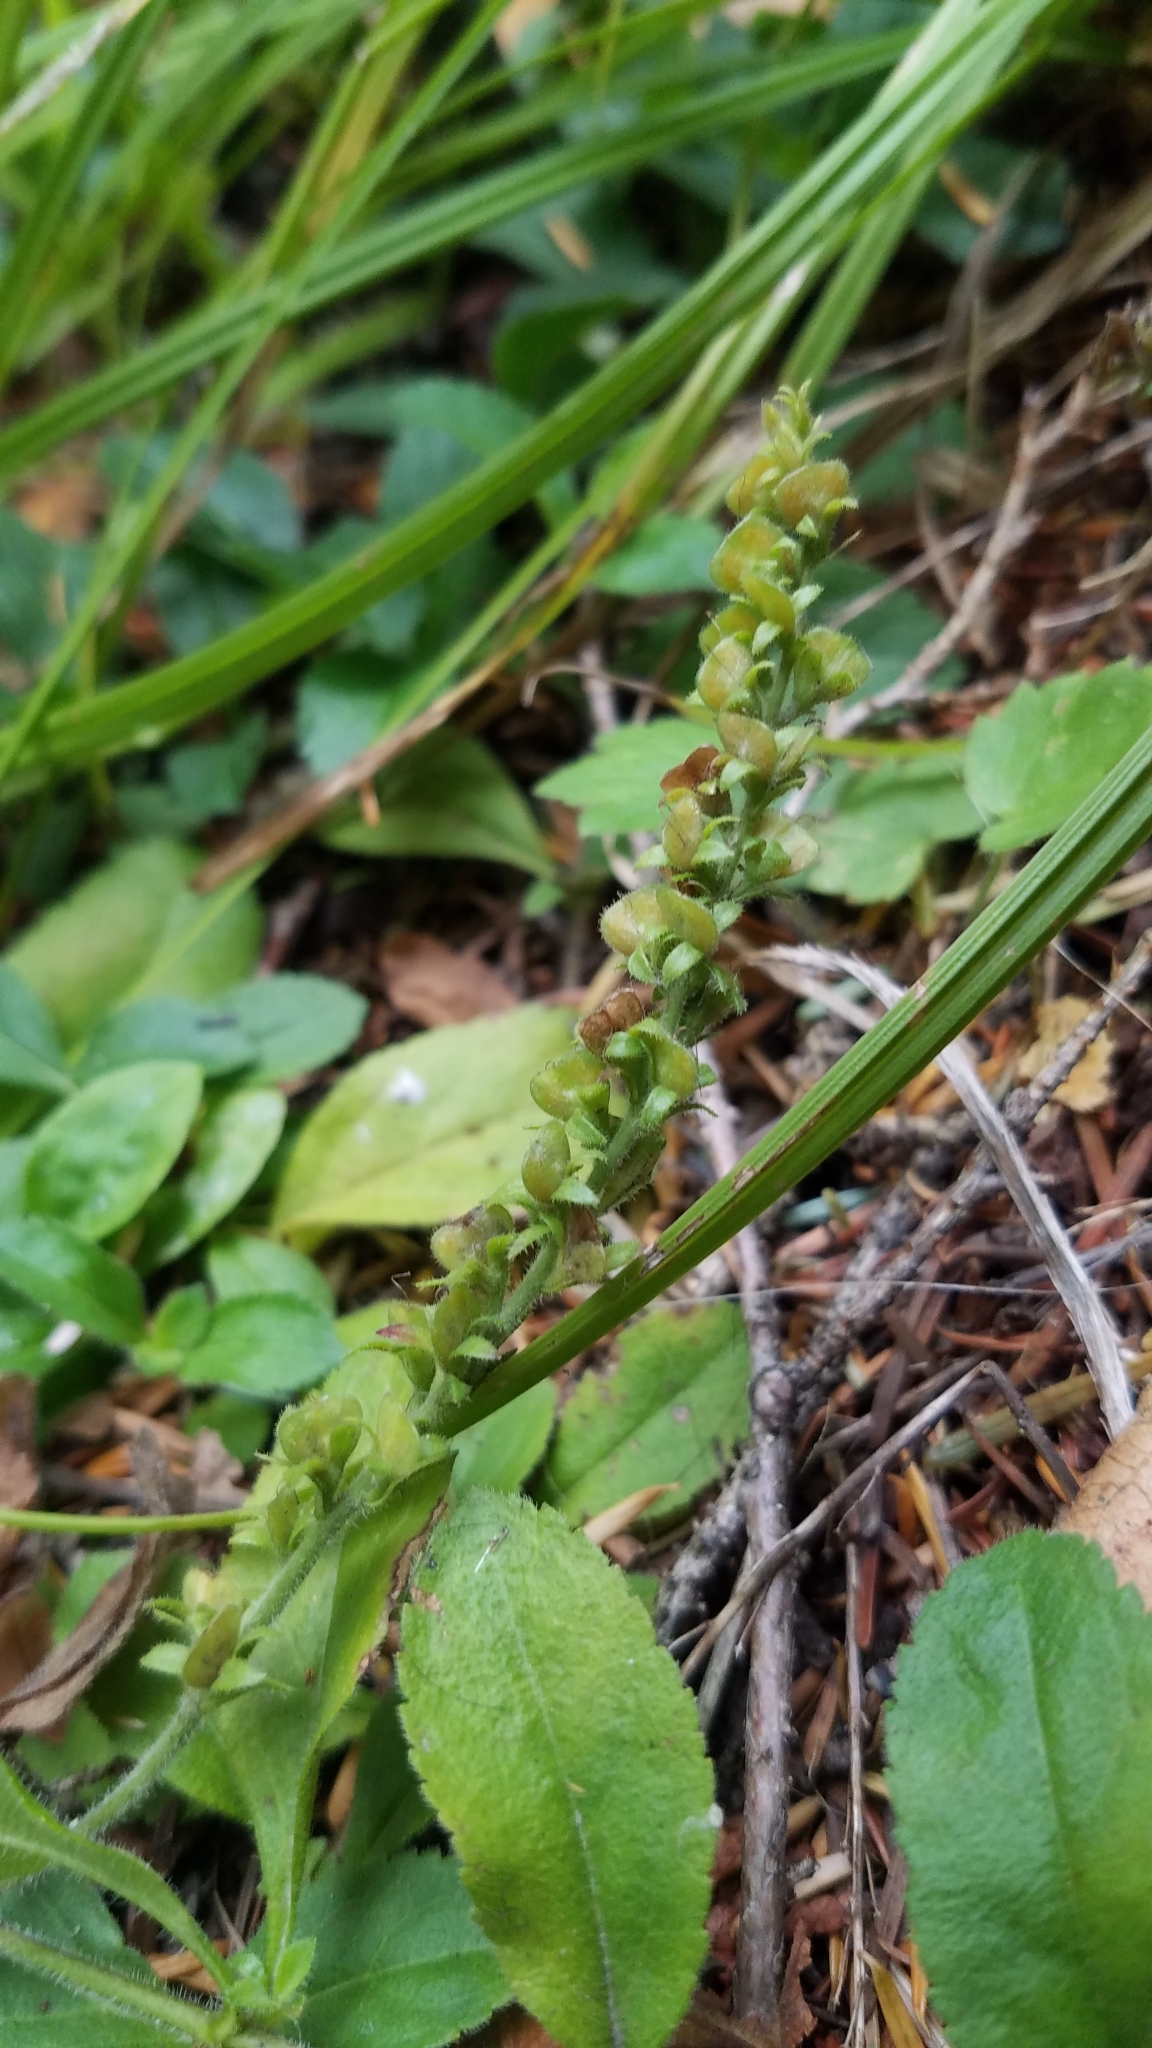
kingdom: Plantae
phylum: Tracheophyta
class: Magnoliopsida
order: Lamiales
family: Plantaginaceae
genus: Veronica
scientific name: Veronica officinalis
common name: Common speedwell
